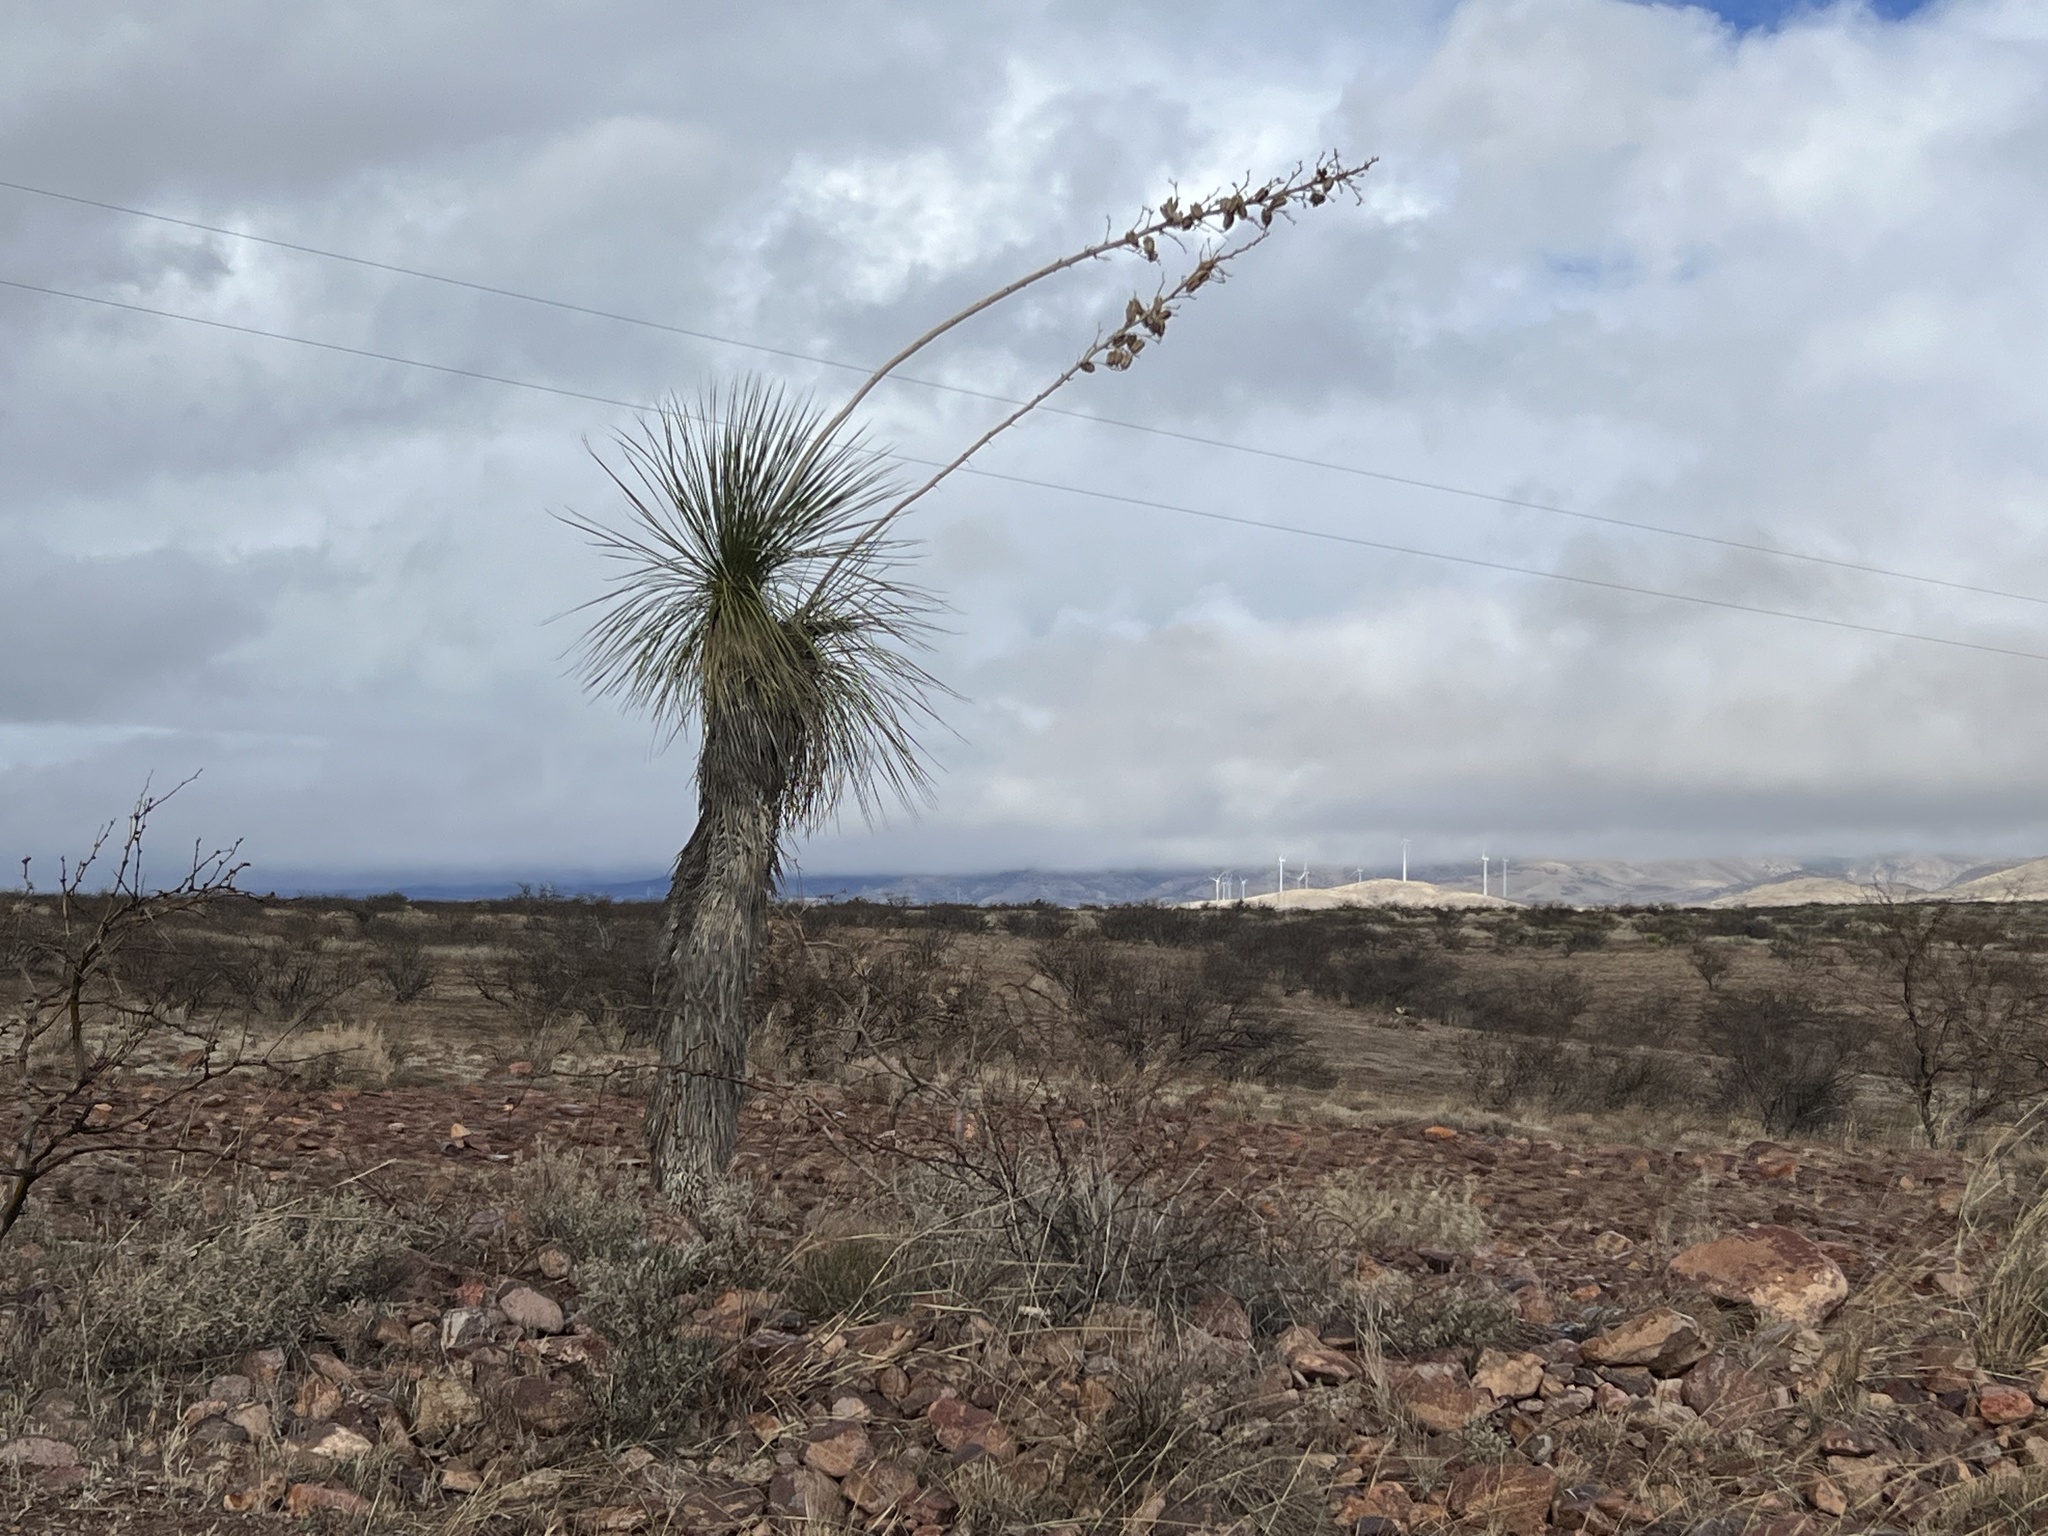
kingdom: Plantae
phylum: Tracheophyta
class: Liliopsida
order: Asparagales
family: Asparagaceae
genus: Yucca
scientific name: Yucca elata
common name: Palmella
